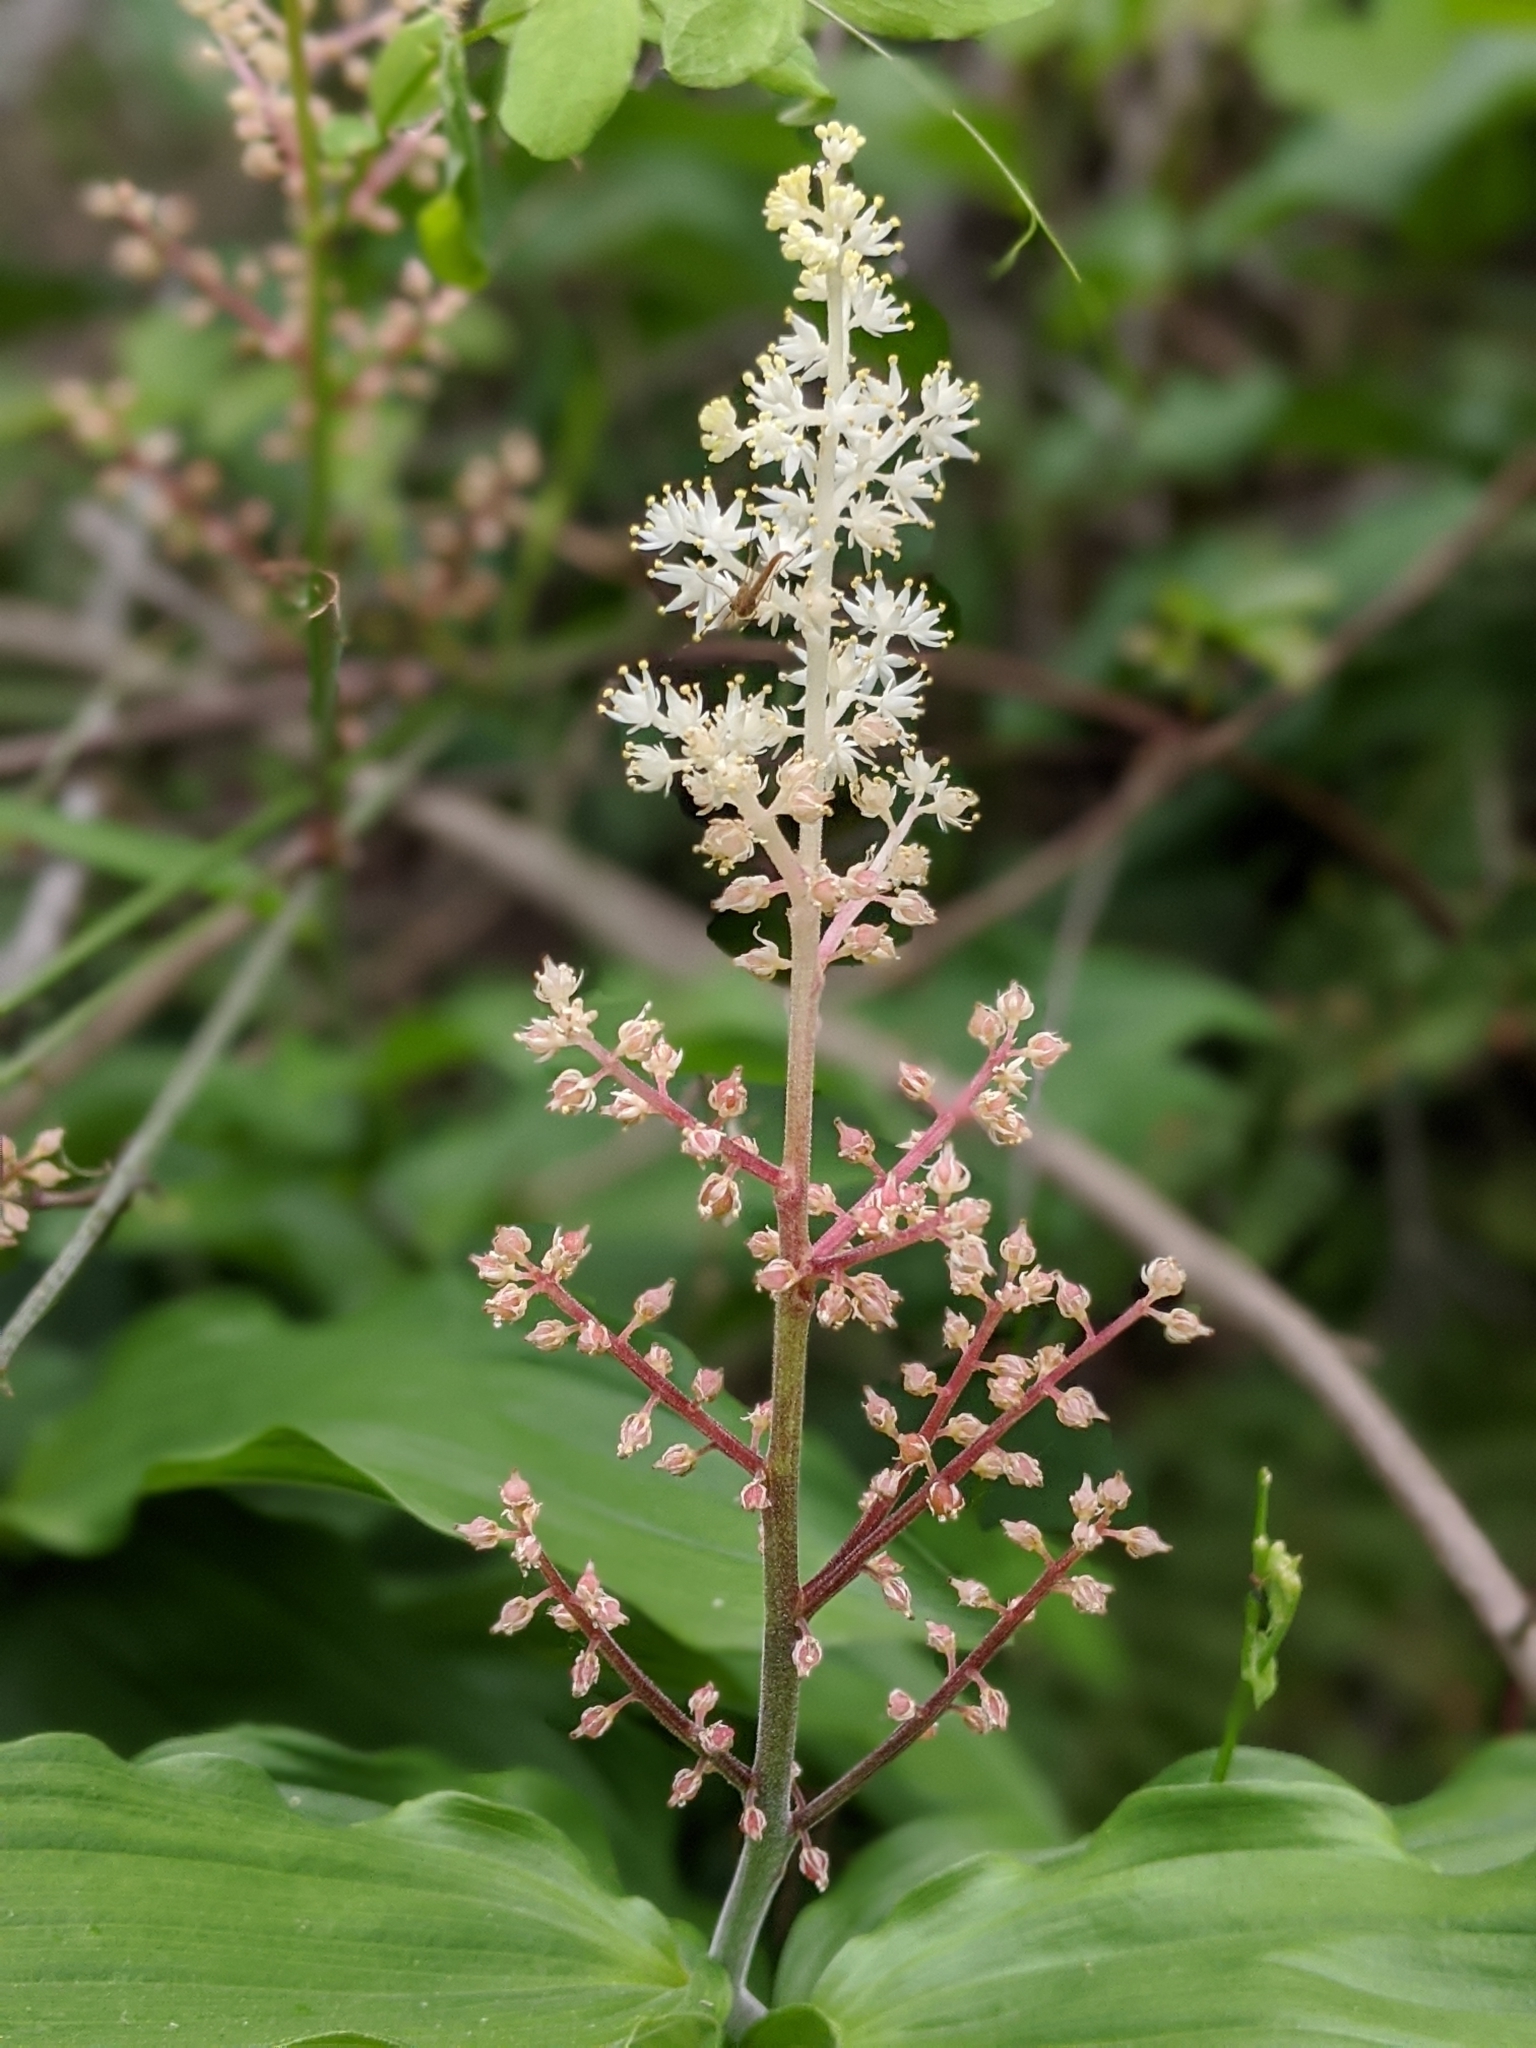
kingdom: Plantae
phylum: Tracheophyta
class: Liliopsida
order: Asparagales
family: Asparagaceae
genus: Maianthemum
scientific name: Maianthemum racemosum
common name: False spikenard
